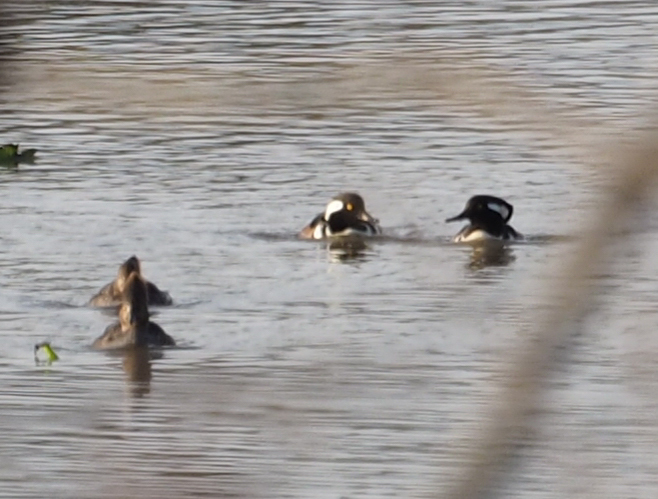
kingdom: Animalia
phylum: Chordata
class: Aves
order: Anseriformes
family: Anatidae
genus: Lophodytes
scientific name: Lophodytes cucullatus
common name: Hooded merganser
